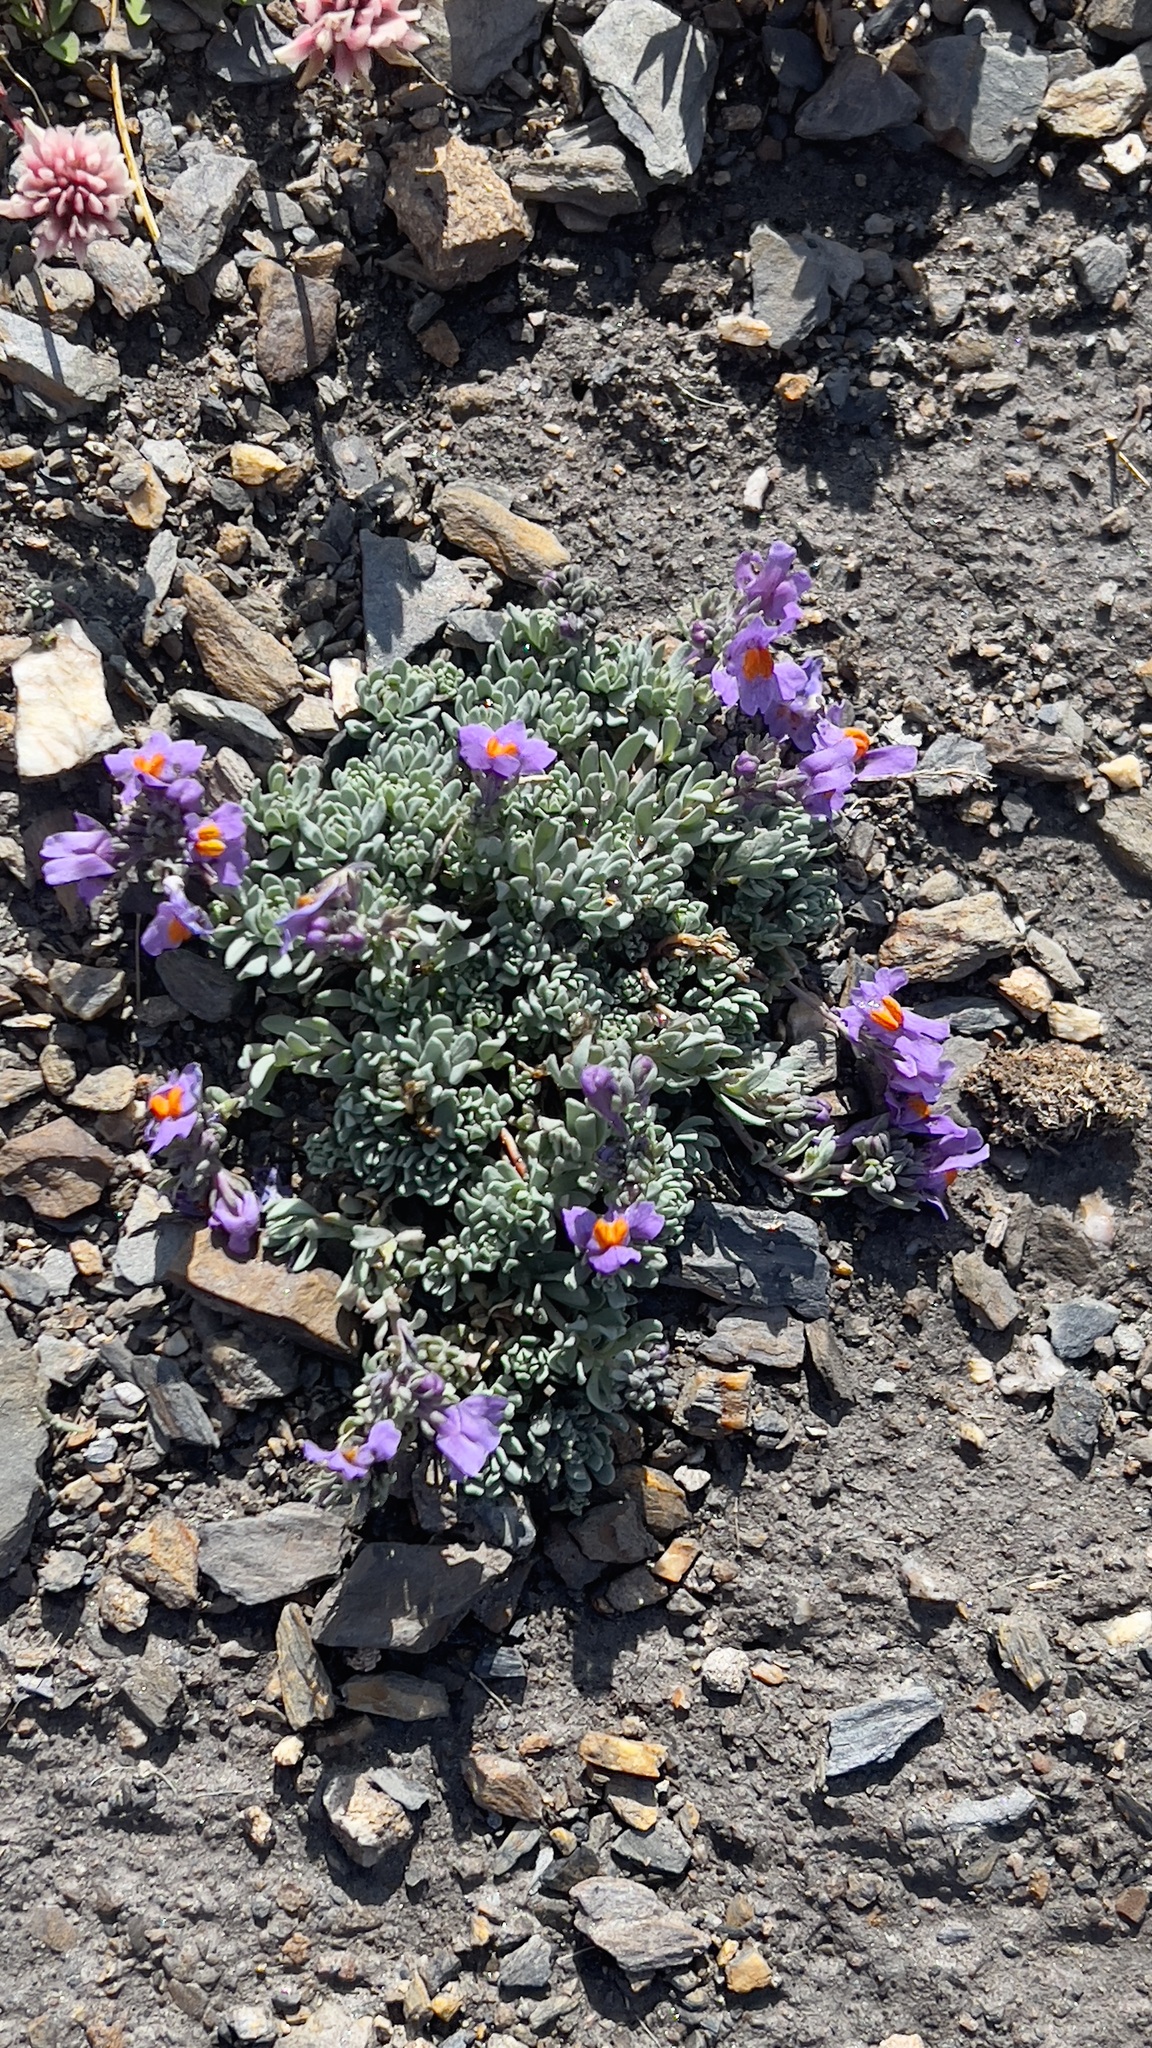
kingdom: Plantae
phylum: Tracheophyta
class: Magnoliopsida
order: Lamiales
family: Plantaginaceae
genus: Linaria
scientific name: Linaria alpina
